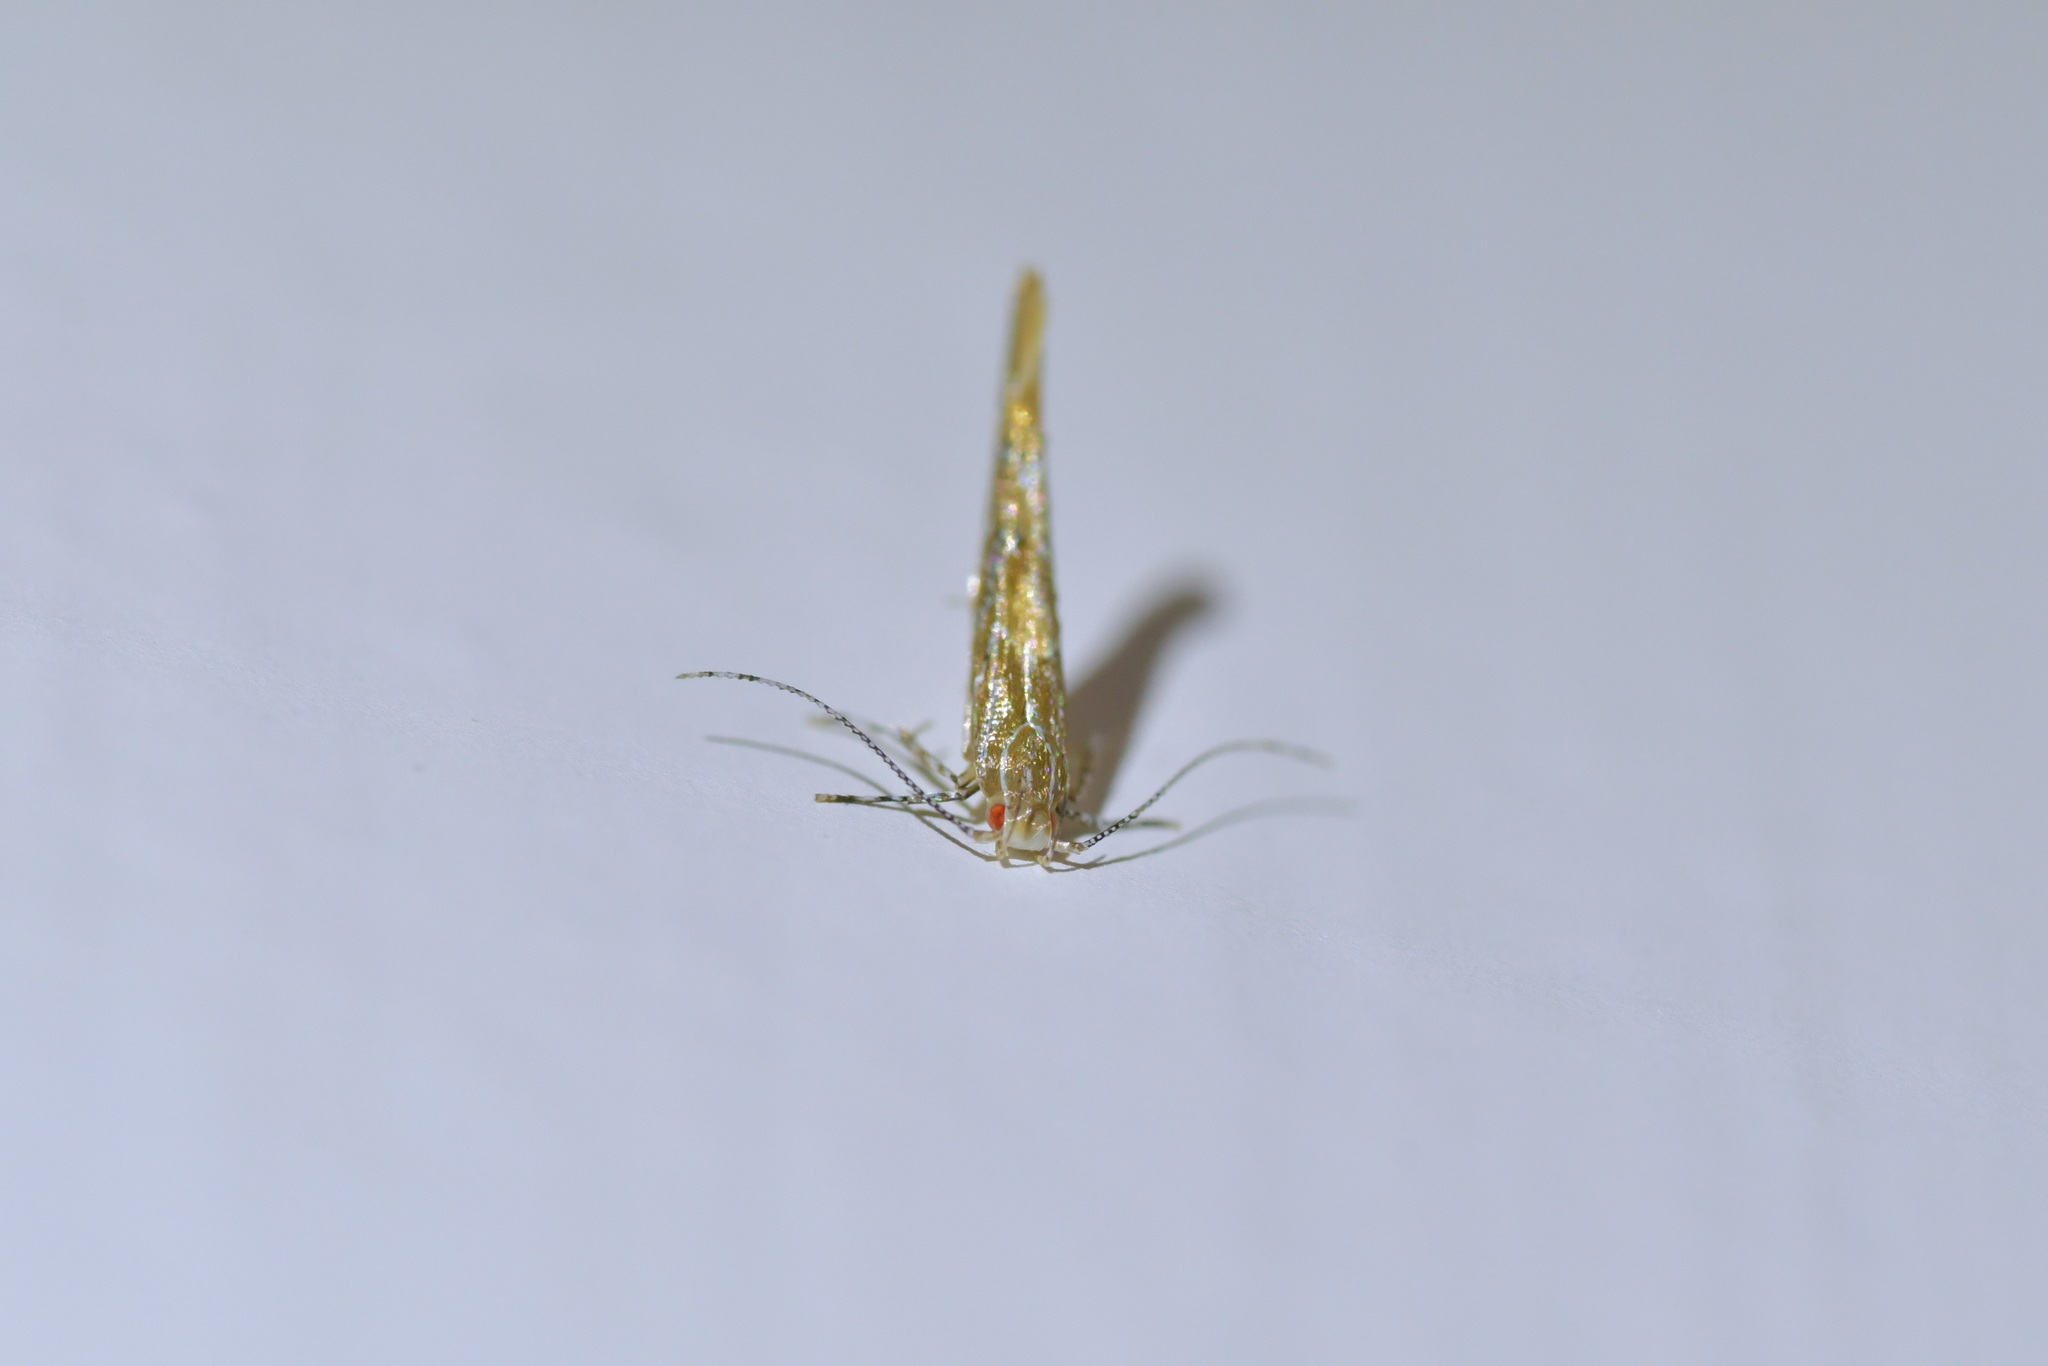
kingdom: Animalia
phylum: Arthropoda
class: Insecta
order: Lepidoptera
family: Cosmopterigidae
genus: Pyroderces
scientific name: Pyroderces apparitella
